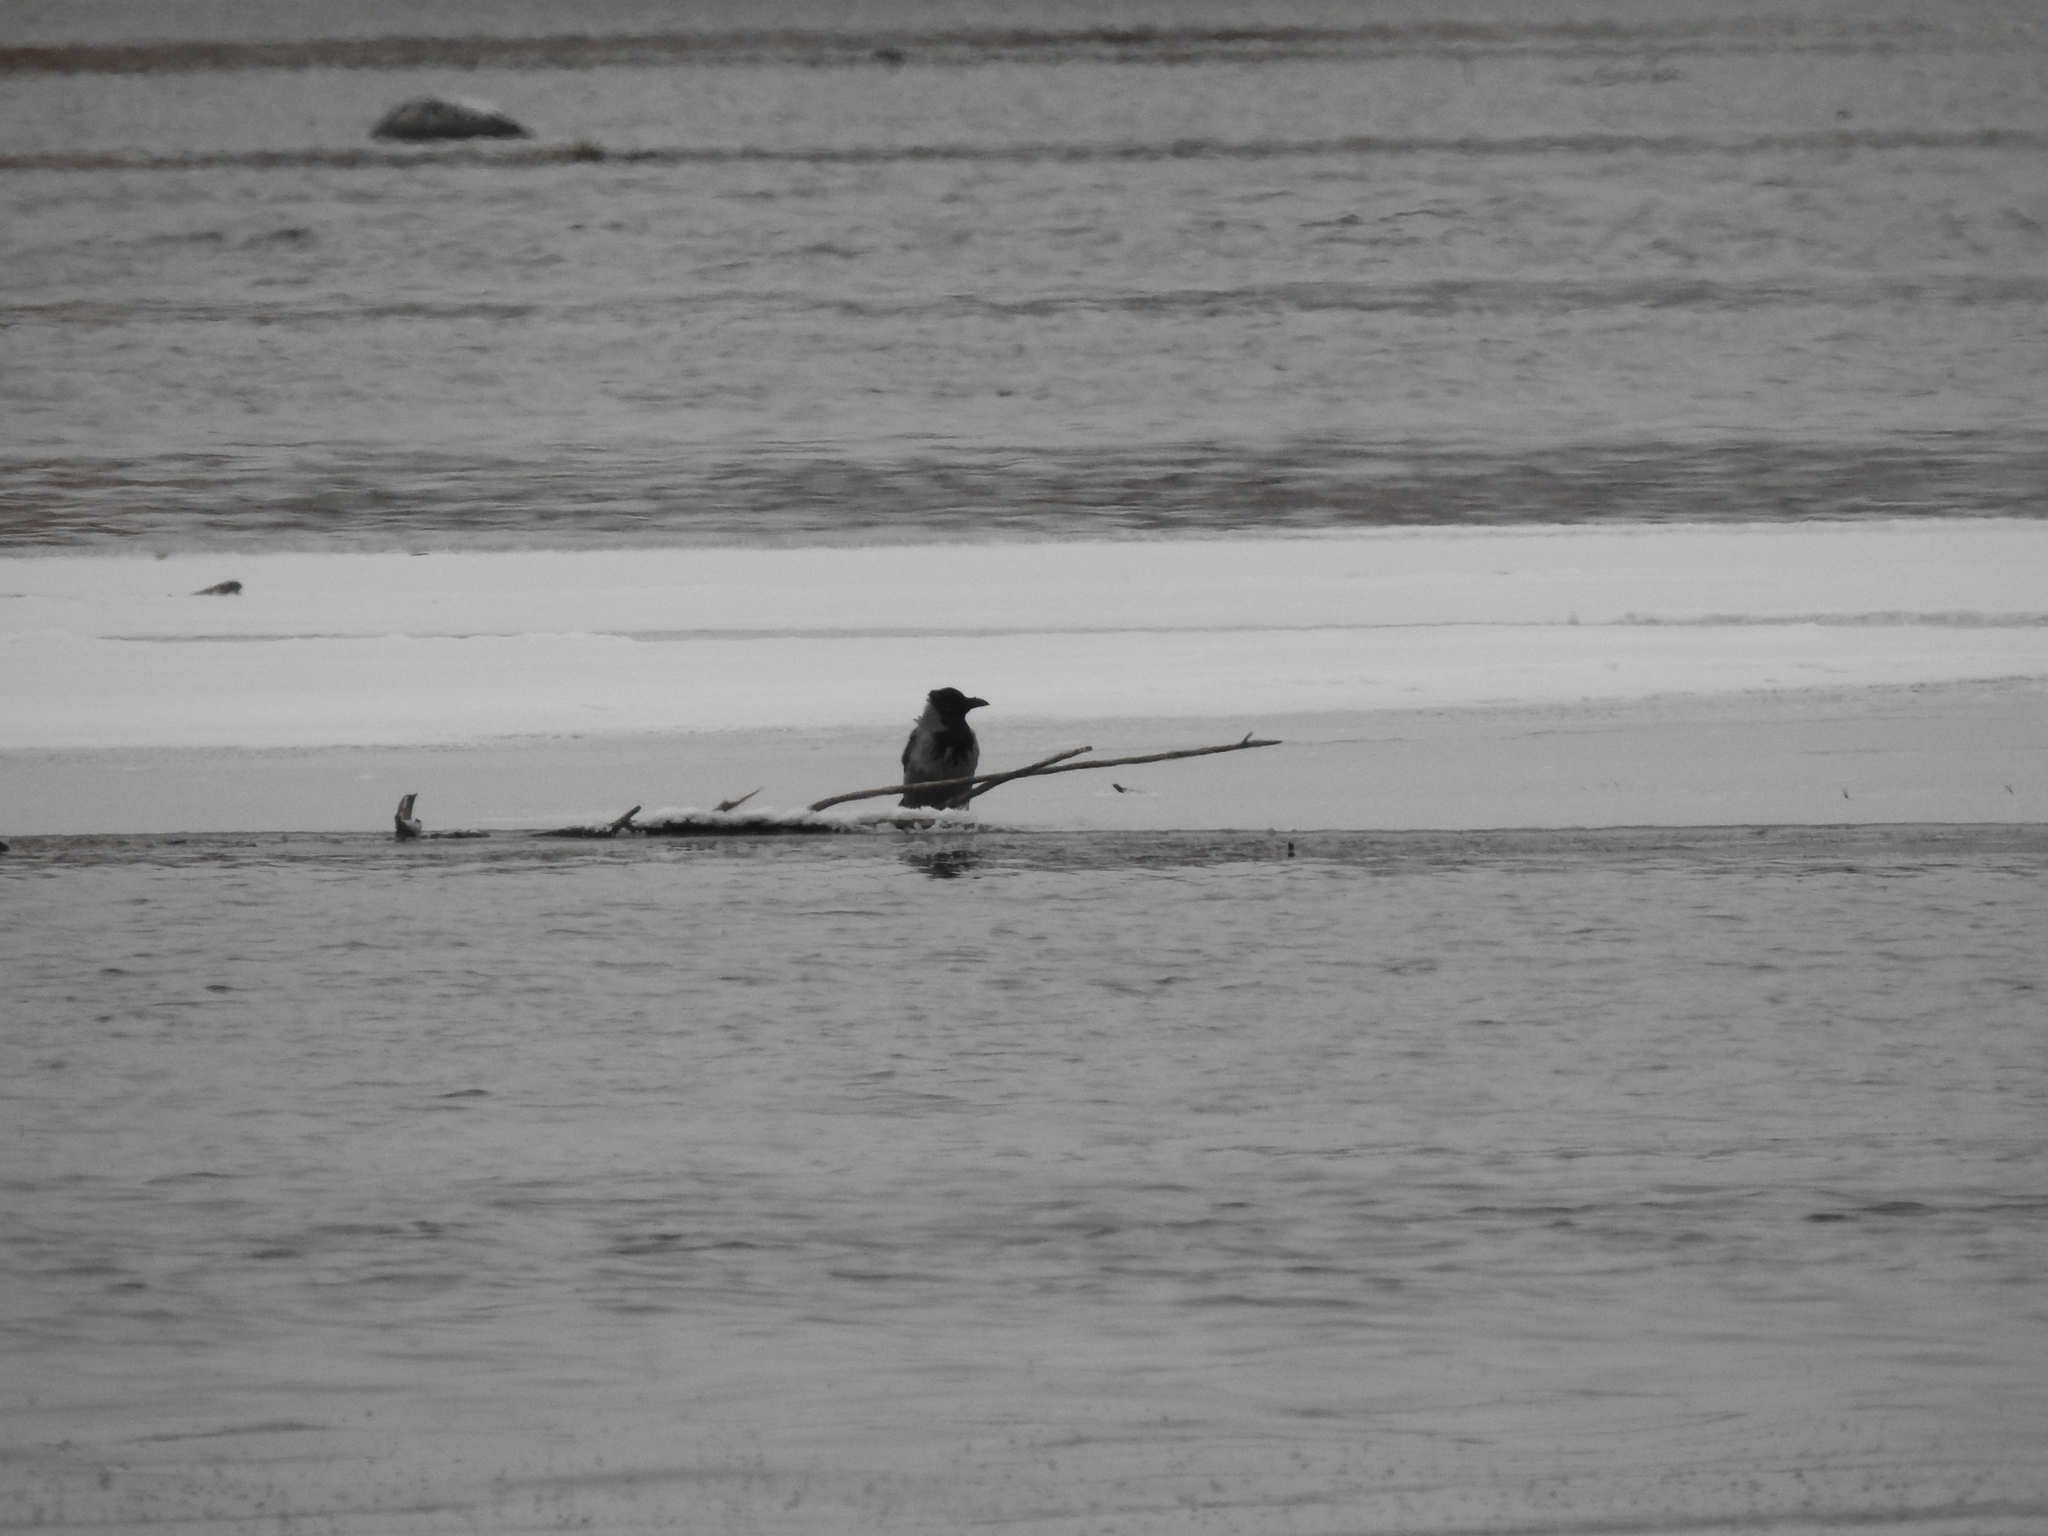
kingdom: Animalia
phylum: Chordata
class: Aves
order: Passeriformes
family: Corvidae
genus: Corvus
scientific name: Corvus cornix
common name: Hooded crow
